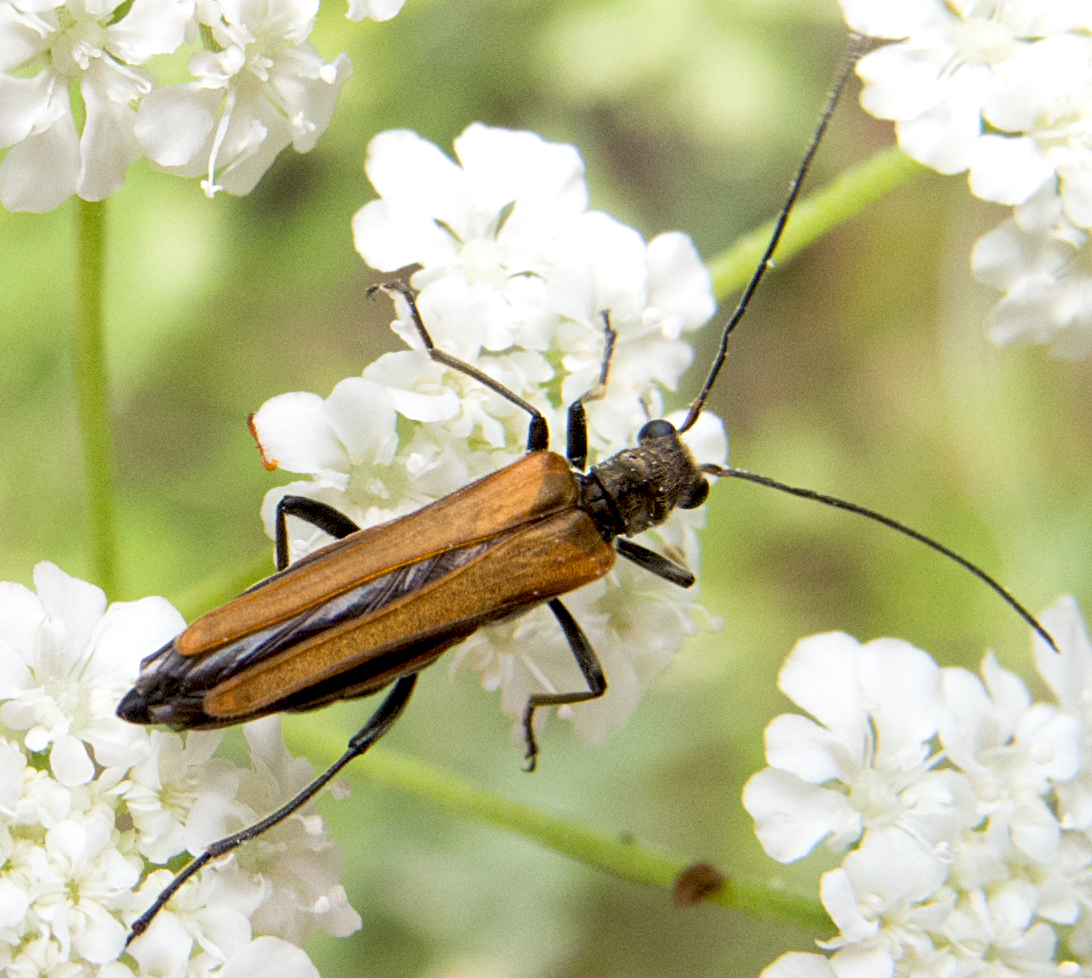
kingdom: Animalia
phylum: Arthropoda
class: Insecta
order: Coleoptera
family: Oedemeridae
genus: Oedemera
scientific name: Oedemera femorata
